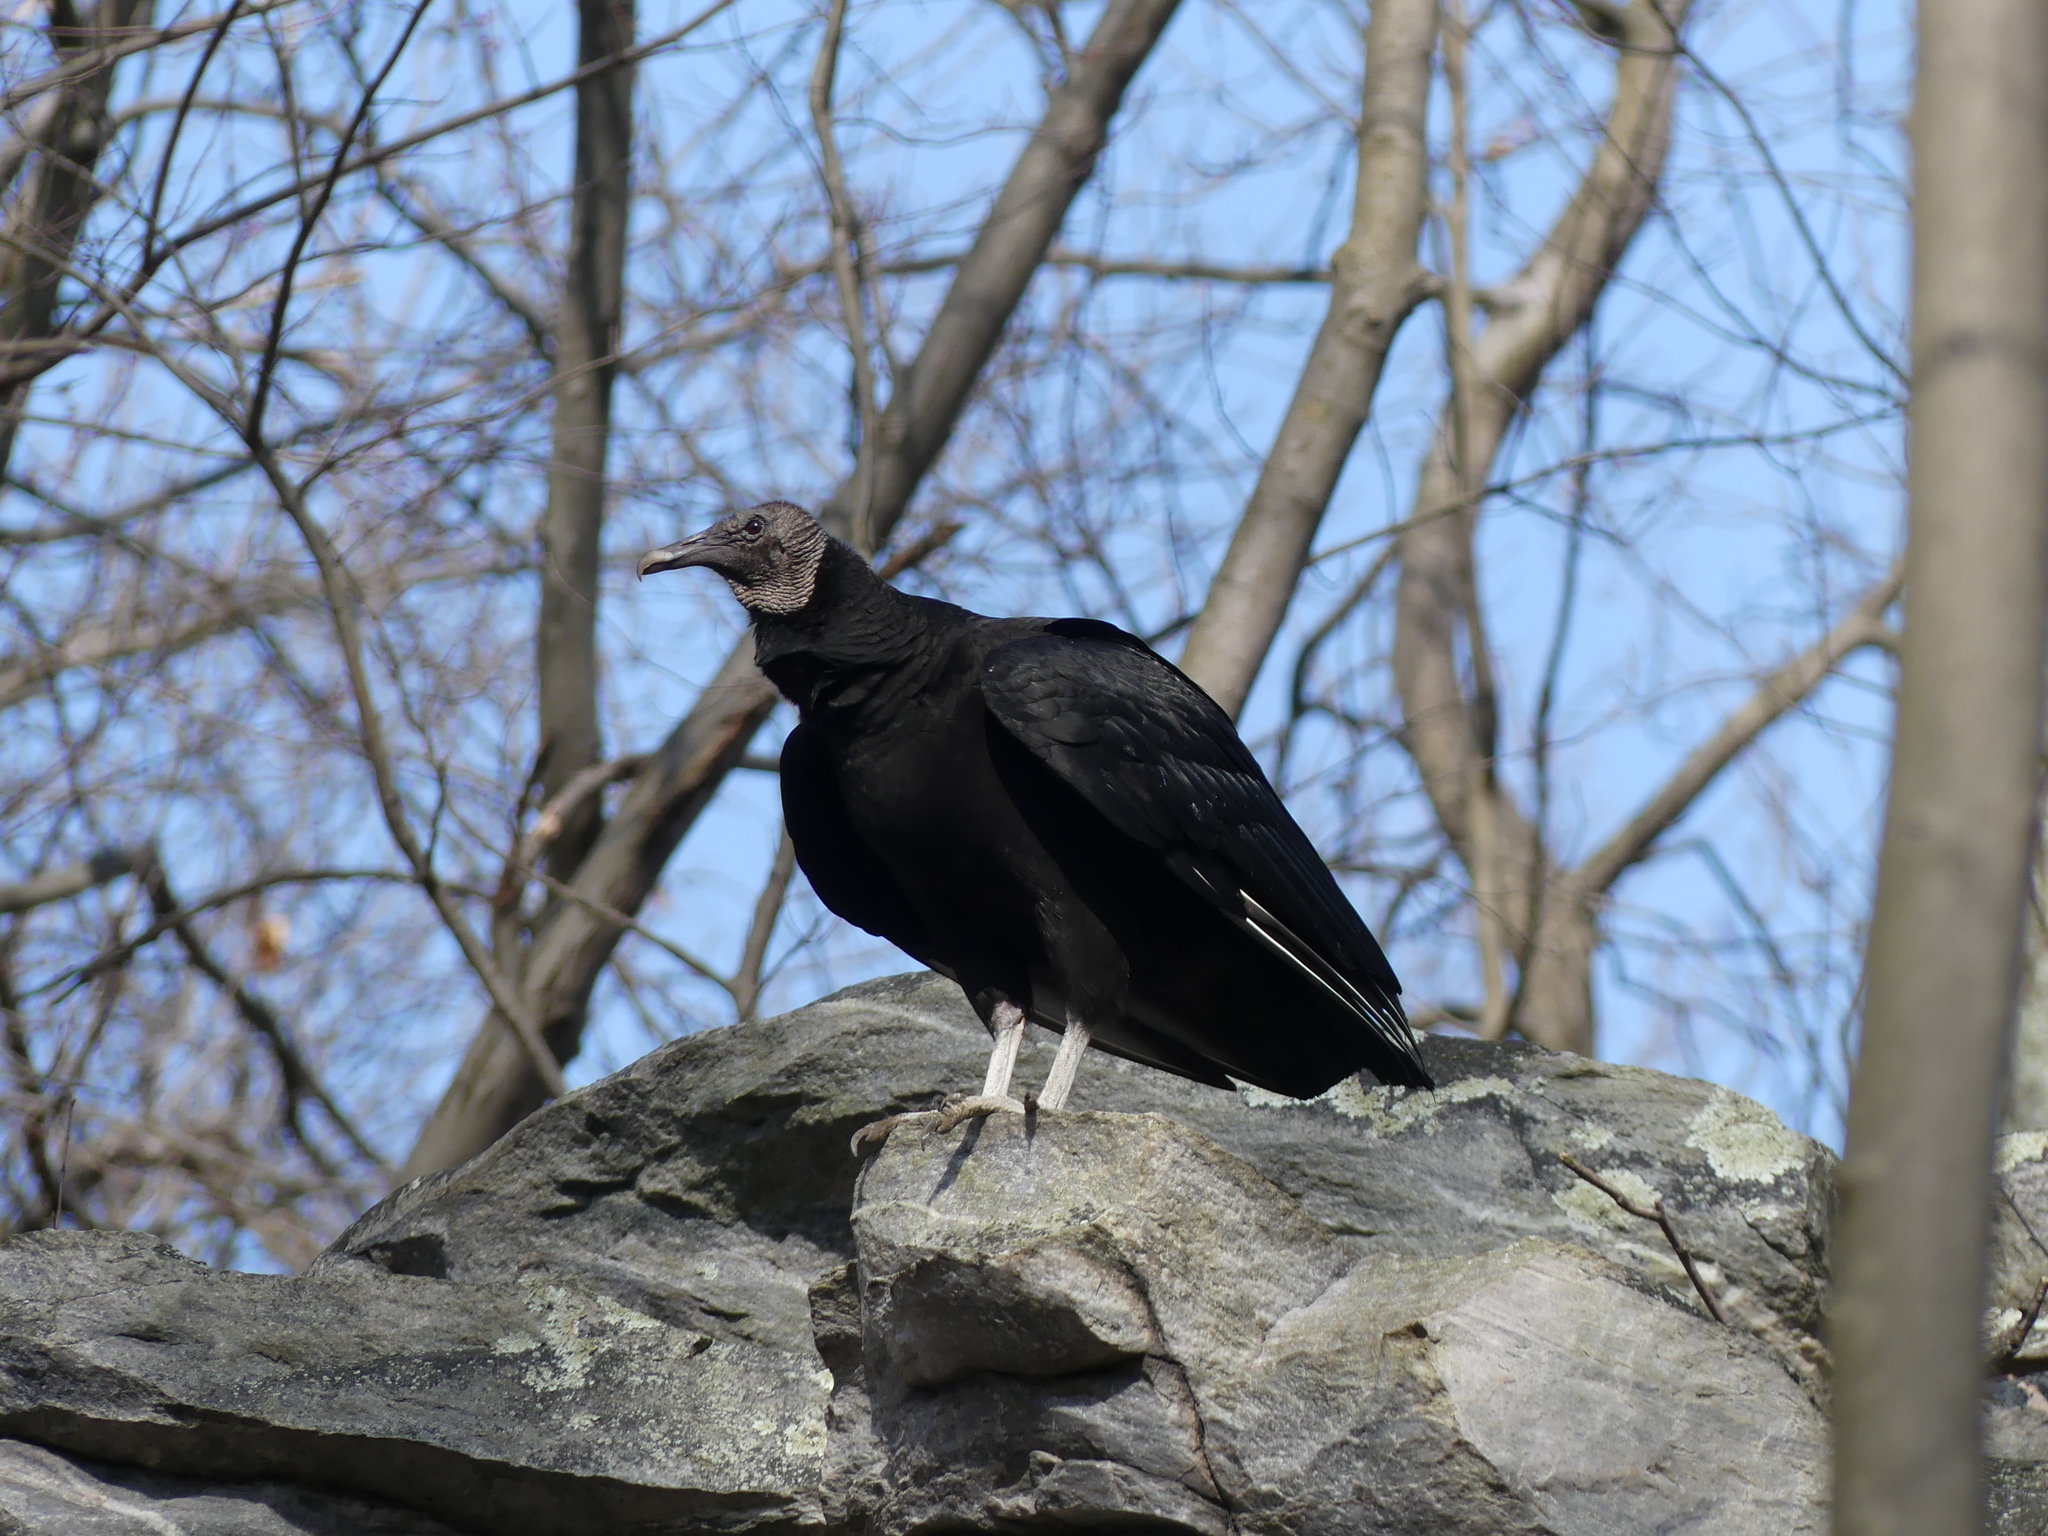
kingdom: Animalia
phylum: Chordata
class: Aves
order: Accipitriformes
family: Cathartidae
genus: Coragyps
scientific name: Coragyps atratus
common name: Black vulture
